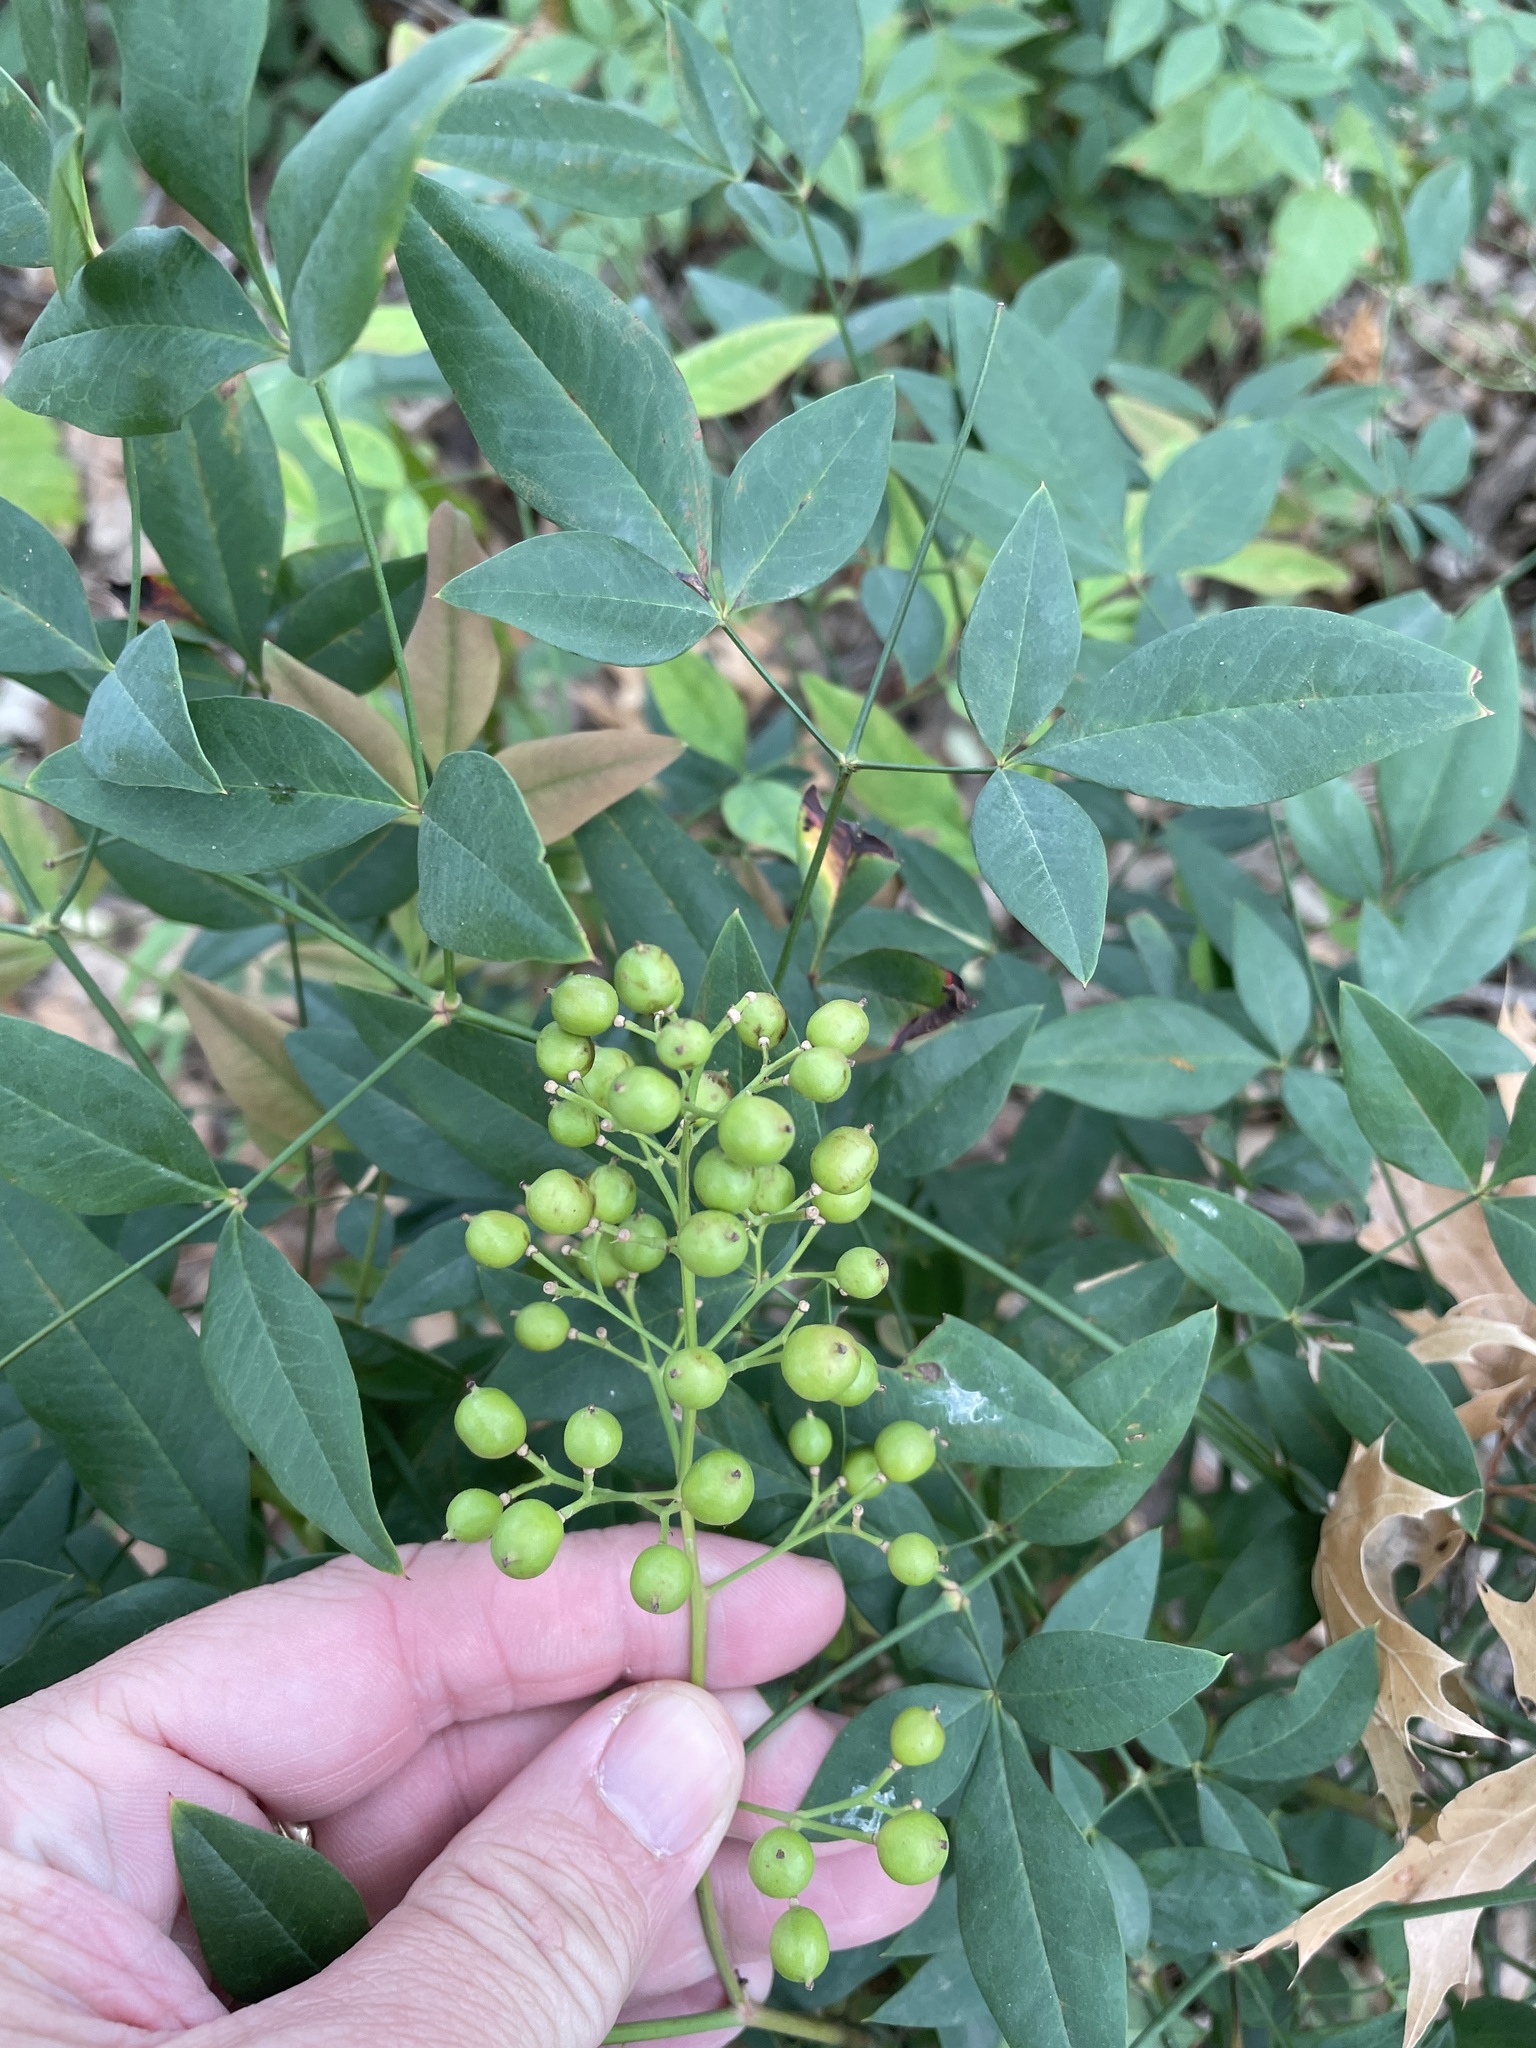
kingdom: Plantae
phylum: Tracheophyta
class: Magnoliopsida
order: Ranunculales
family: Berberidaceae
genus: Nandina
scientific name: Nandina domestica
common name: Sacred bamboo
